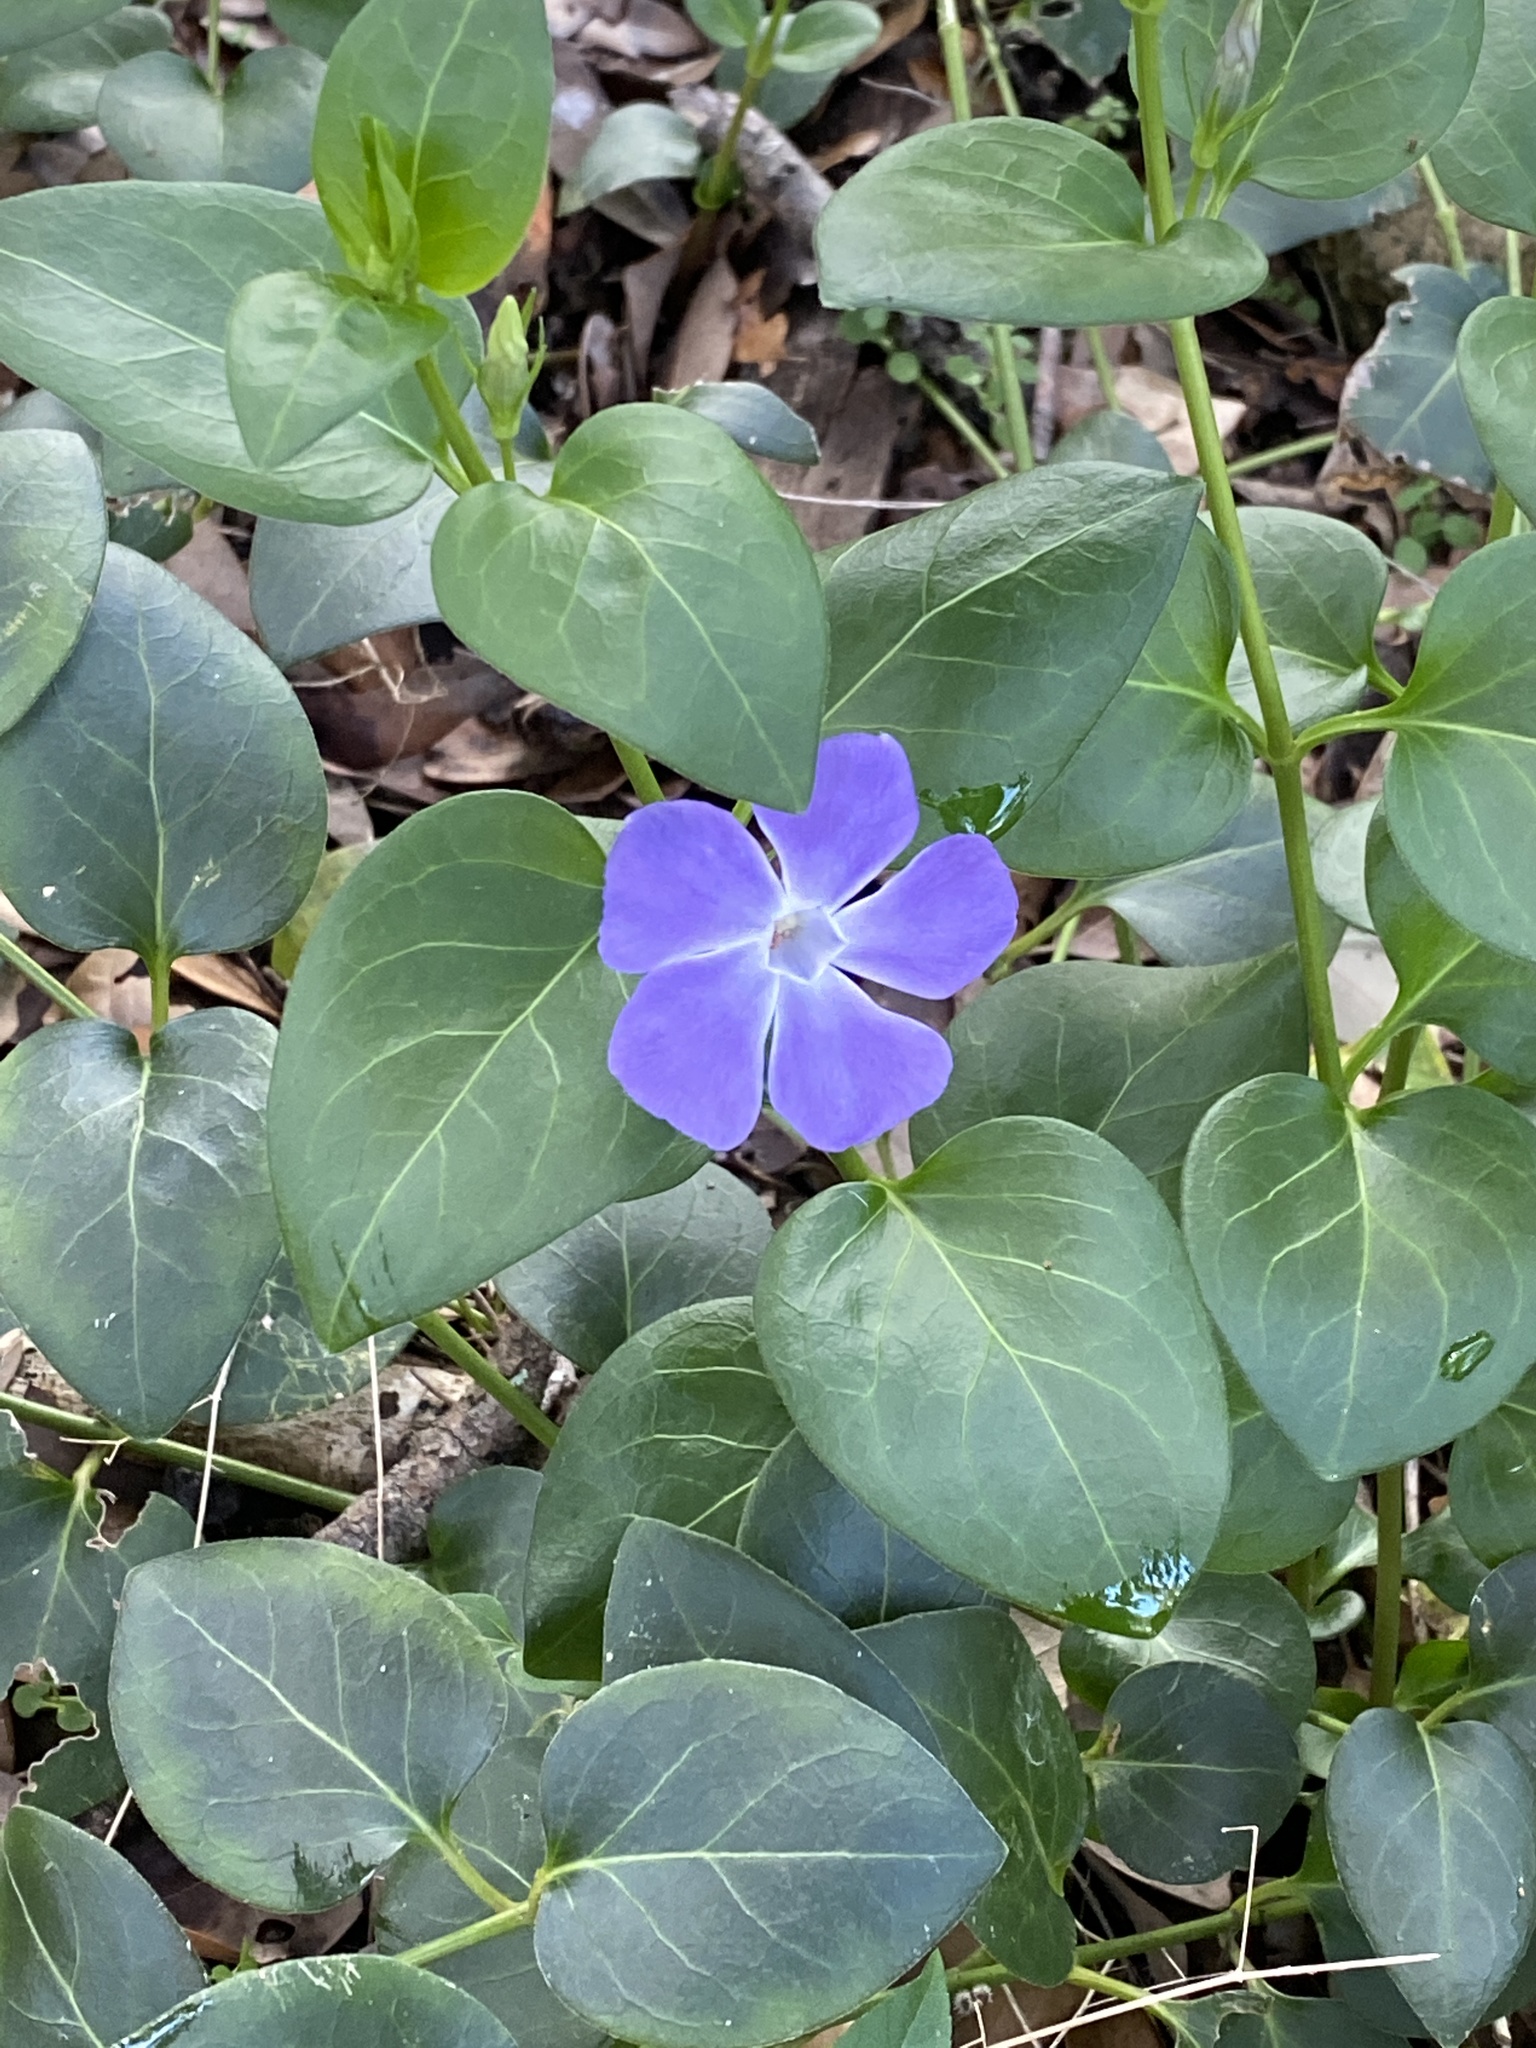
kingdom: Plantae
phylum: Tracheophyta
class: Magnoliopsida
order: Gentianales
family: Apocynaceae
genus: Vinca
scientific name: Vinca major
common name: Greater periwinkle
